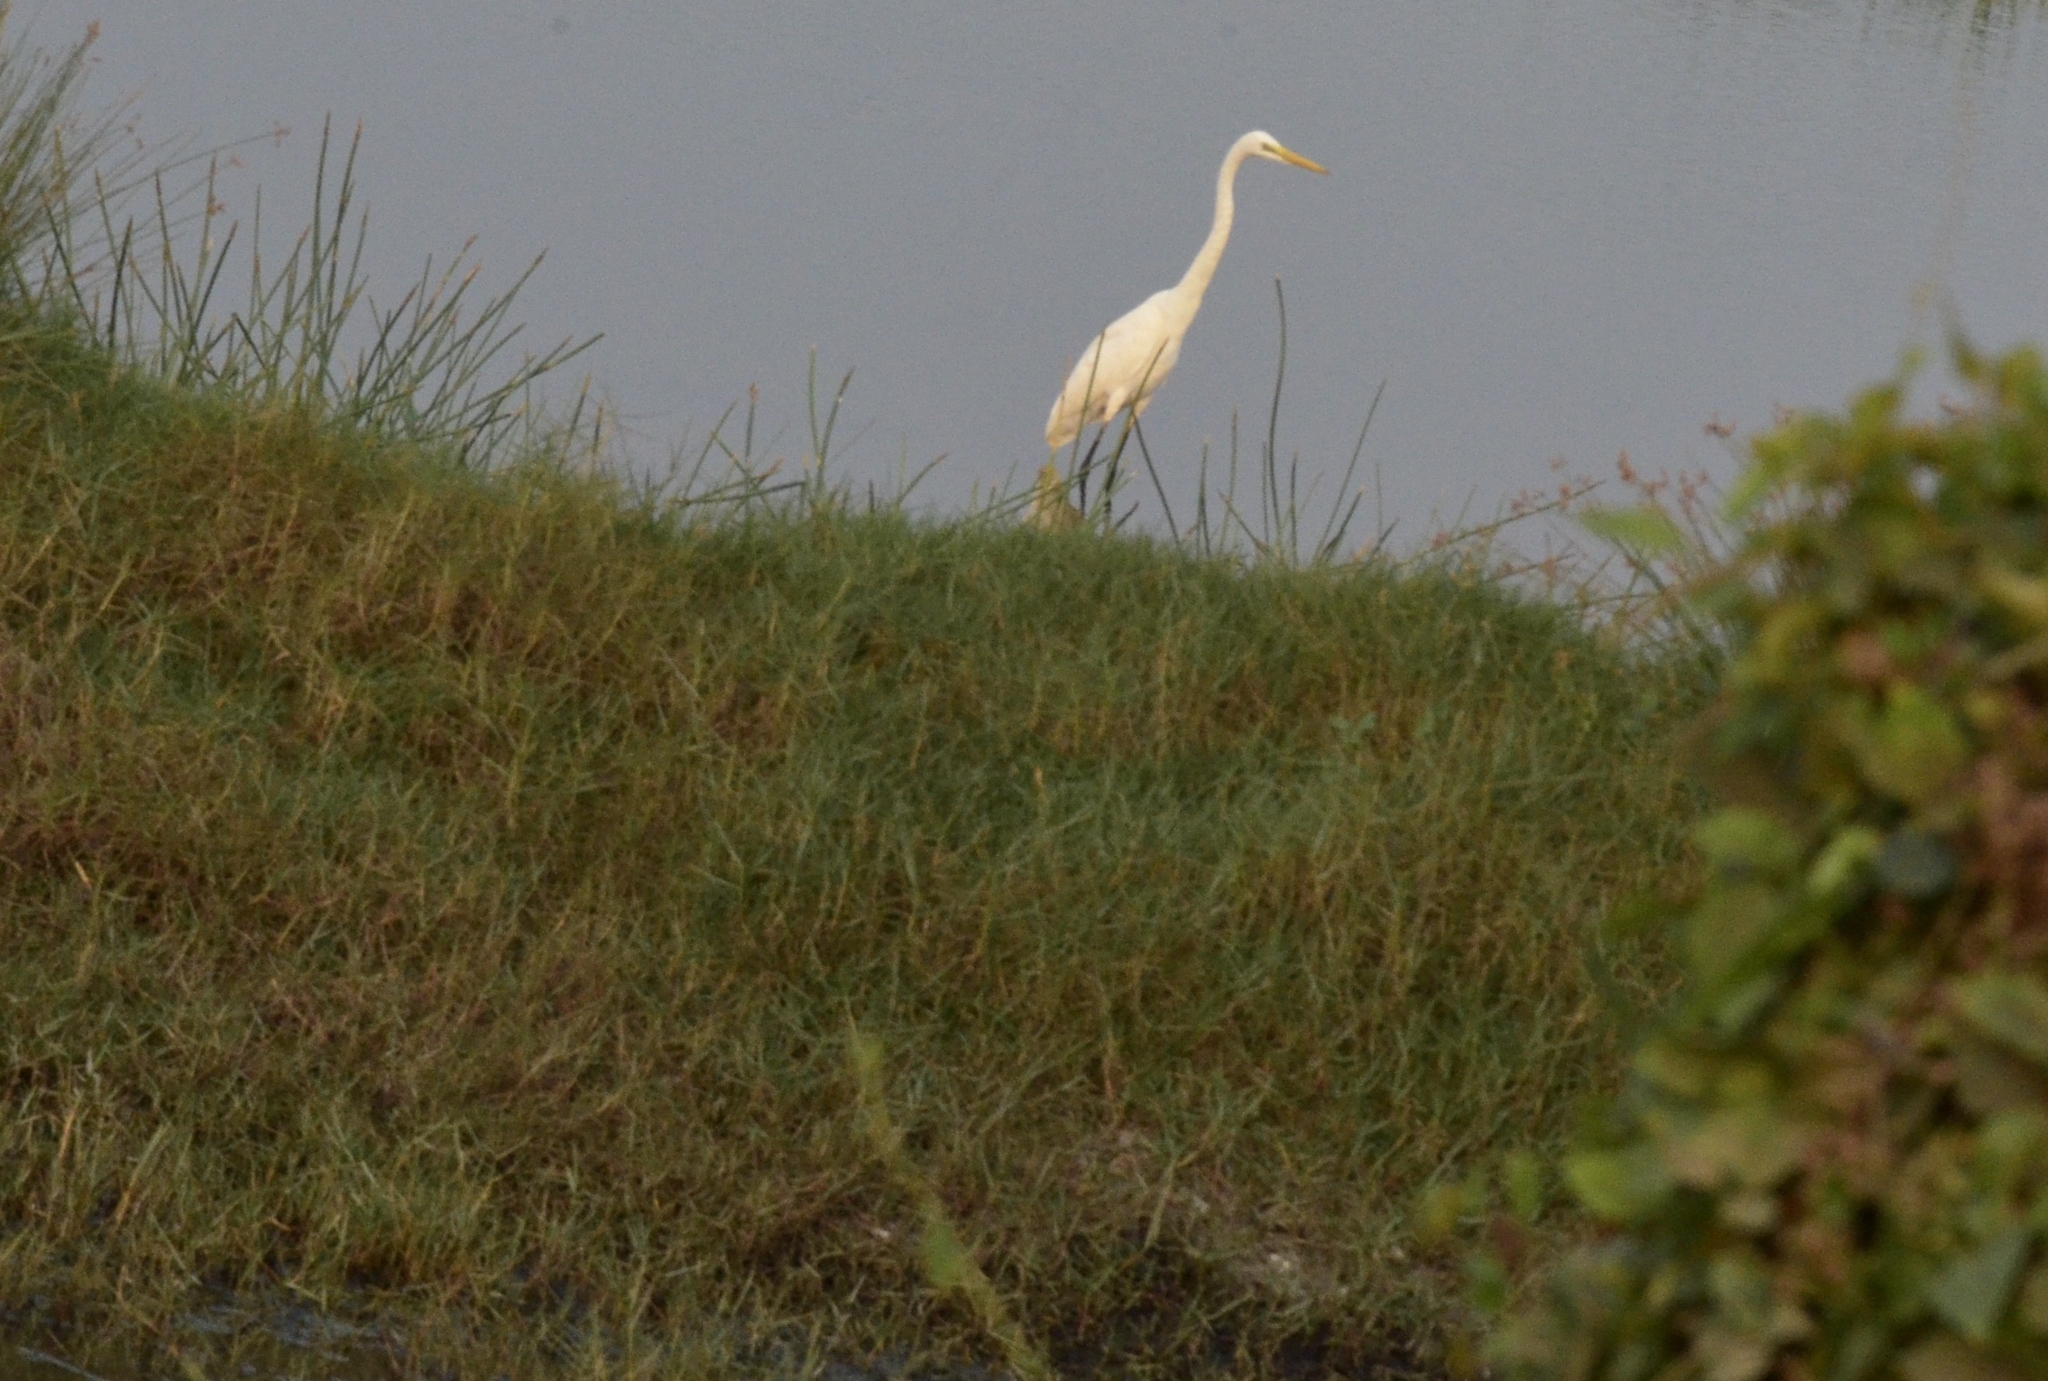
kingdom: Animalia
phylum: Chordata
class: Aves
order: Pelecaniformes
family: Ardeidae
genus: Egretta
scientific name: Egretta intermedia
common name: Intermediate egret
